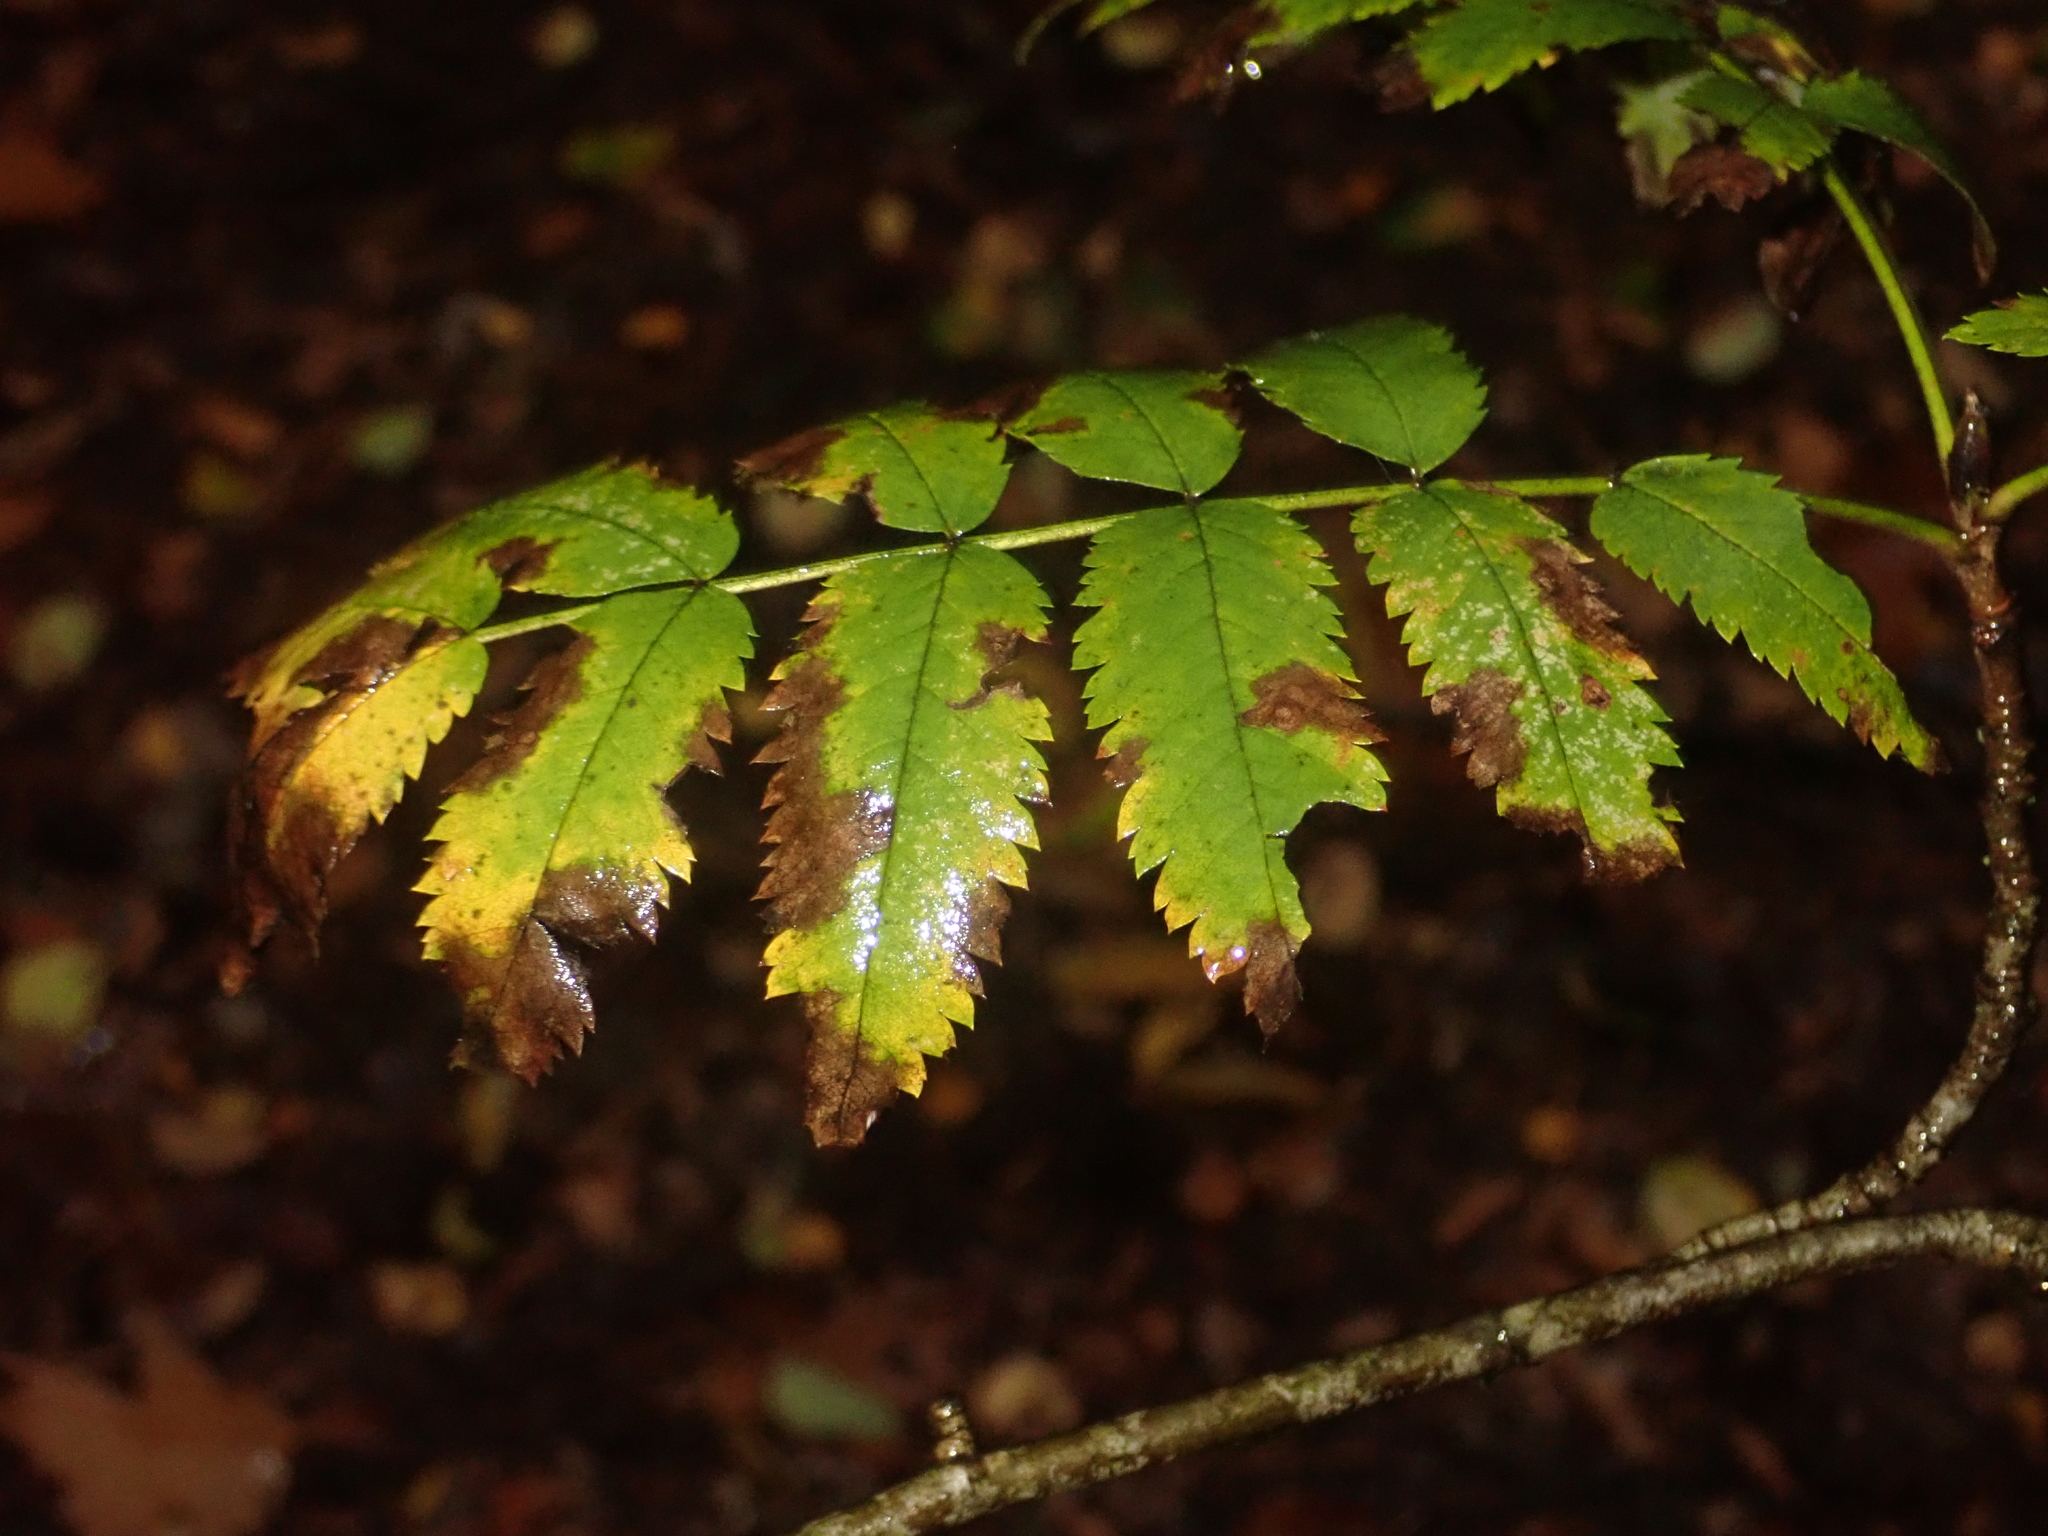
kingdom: Plantae
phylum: Tracheophyta
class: Magnoliopsida
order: Rosales
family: Rosaceae
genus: Sorbus
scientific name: Sorbus aucuparia
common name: Rowan
